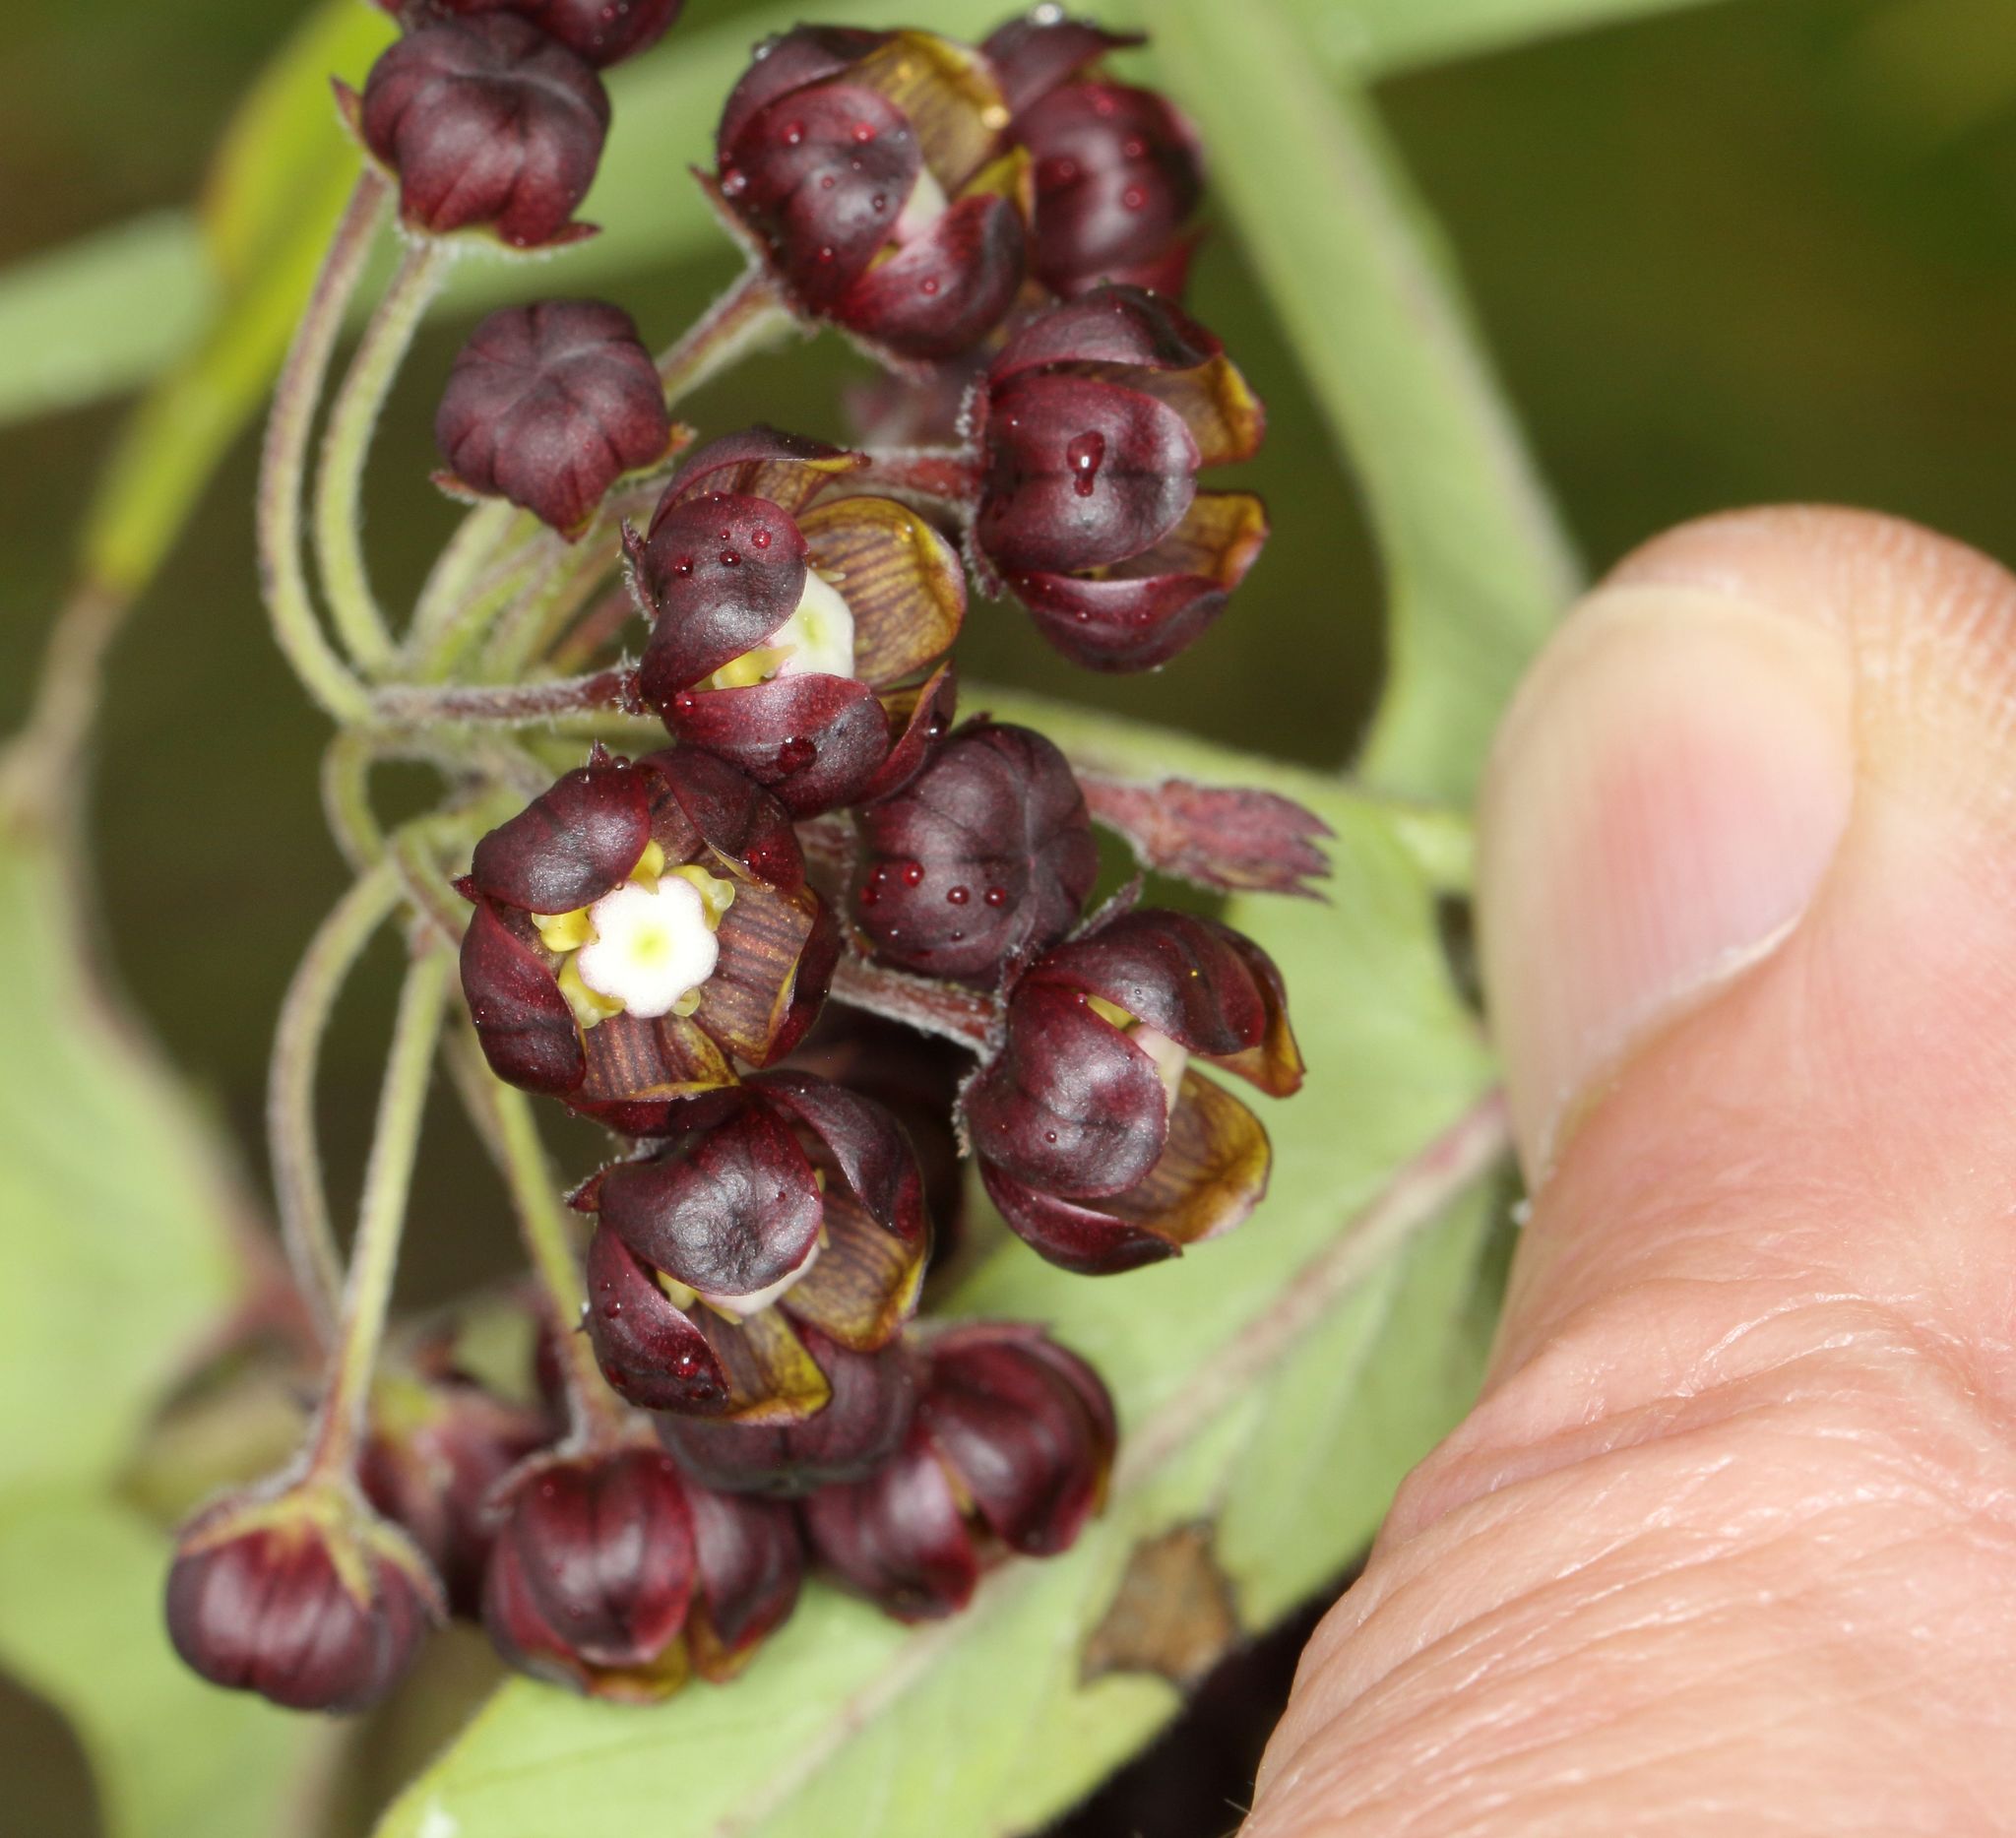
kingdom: Plantae
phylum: Tracheophyta
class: Magnoliopsida
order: Gentianales
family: Apocynaceae
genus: Schizoglossum
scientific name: Schizoglossum atropurpureum
